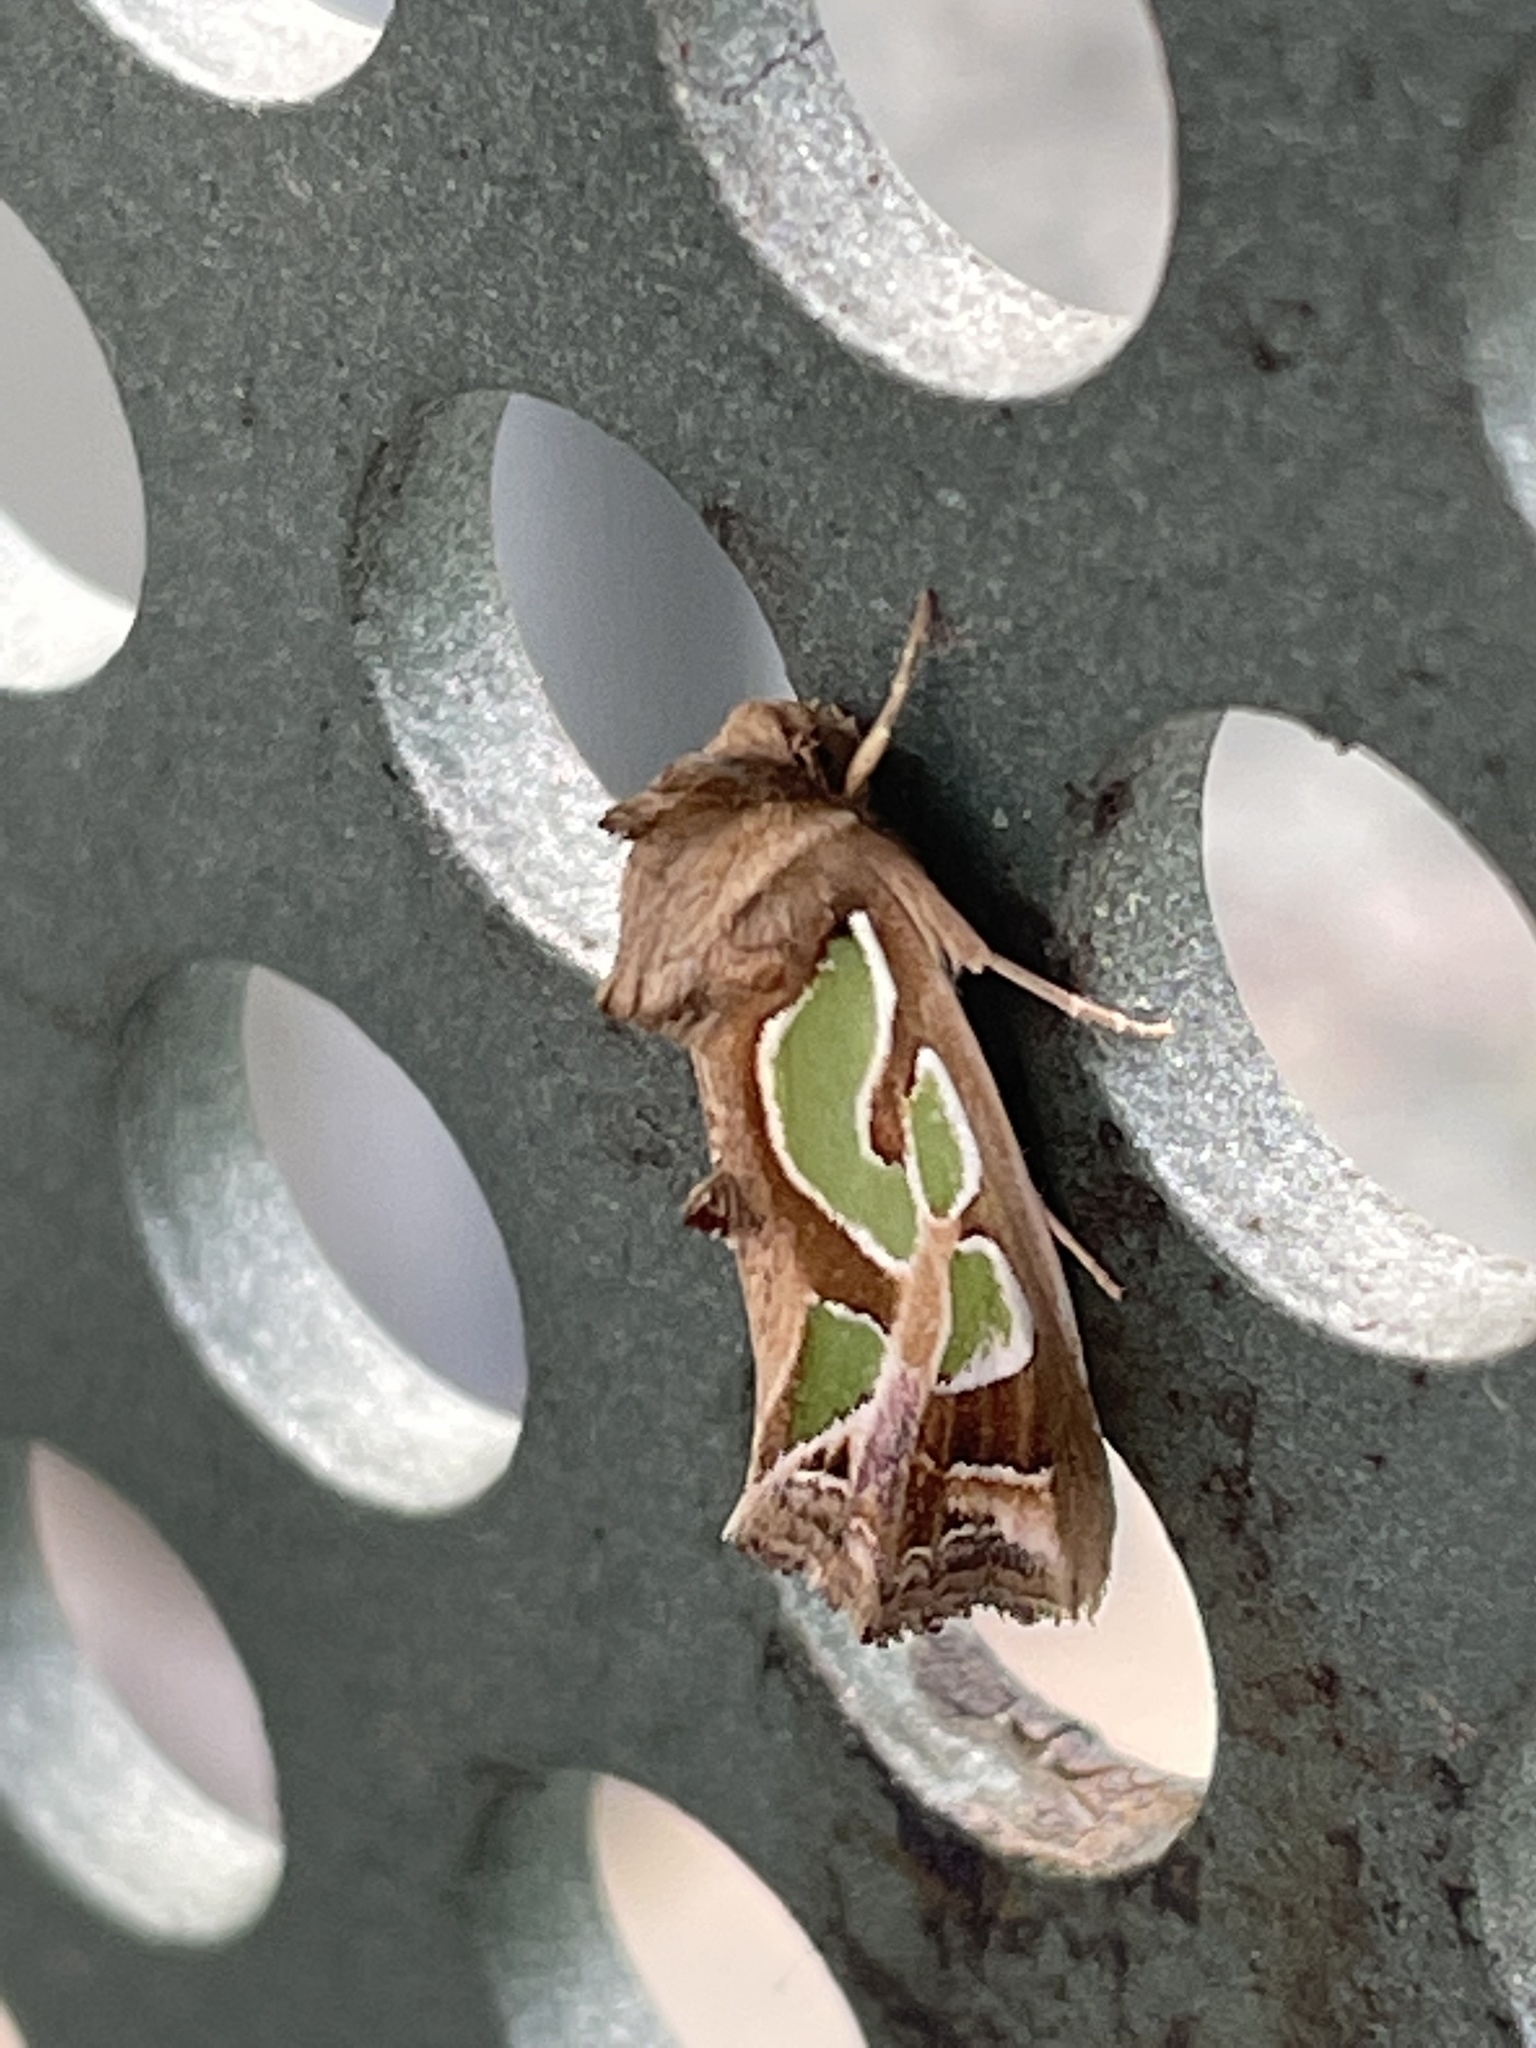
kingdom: Animalia
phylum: Arthropoda
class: Insecta
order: Lepidoptera
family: Noctuidae
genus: Cosmodes
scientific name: Cosmodes elegans
